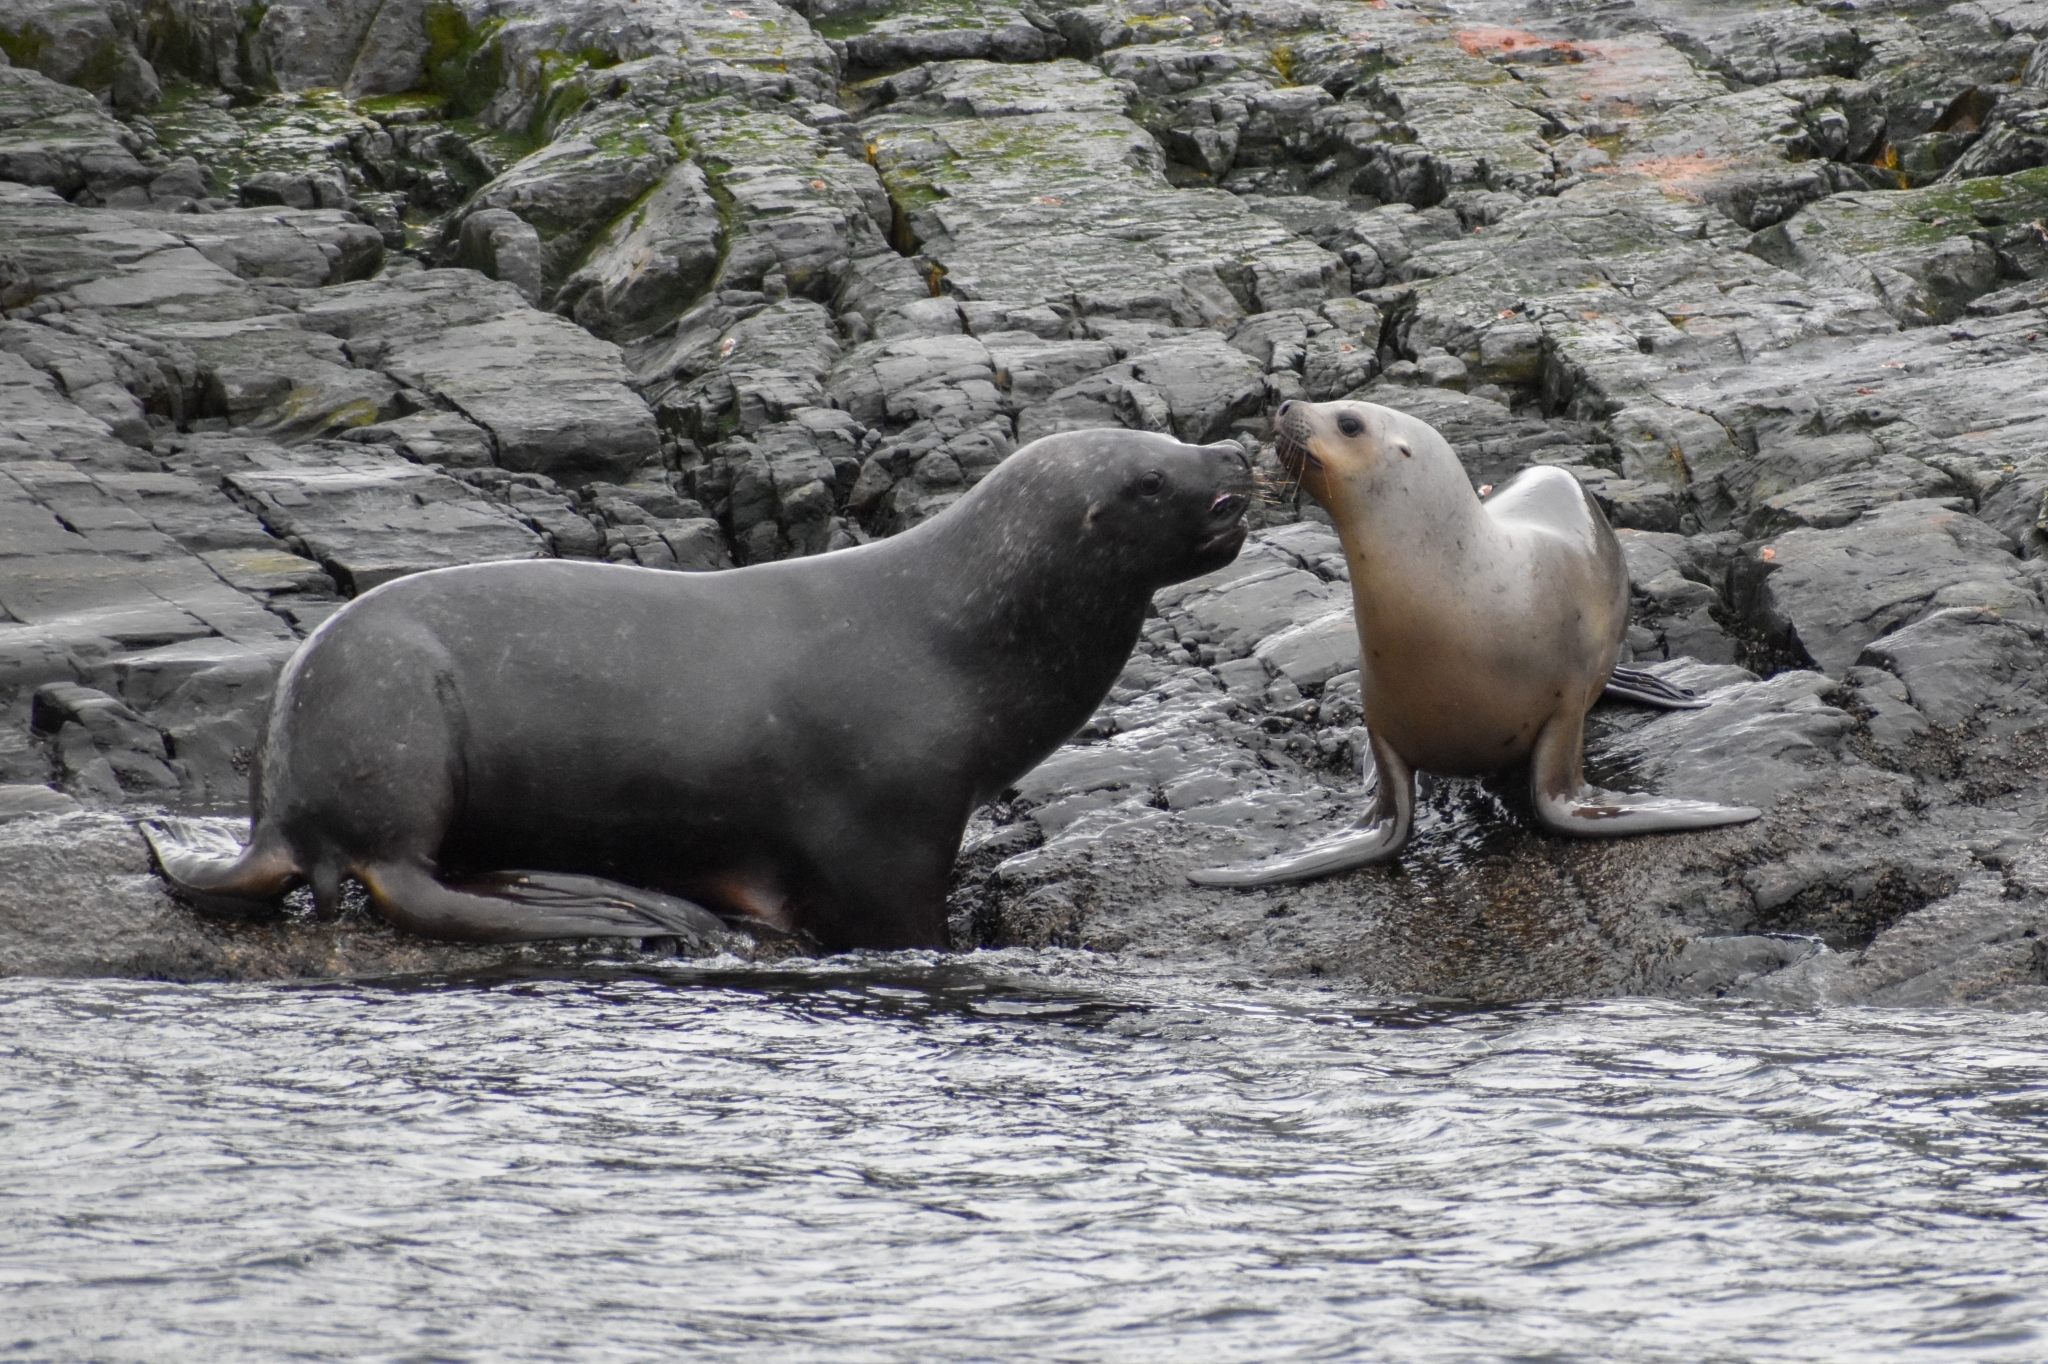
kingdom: Animalia
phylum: Chordata
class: Mammalia
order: Carnivora
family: Otariidae
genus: Otaria
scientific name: Otaria byronia
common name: South american sea lion
